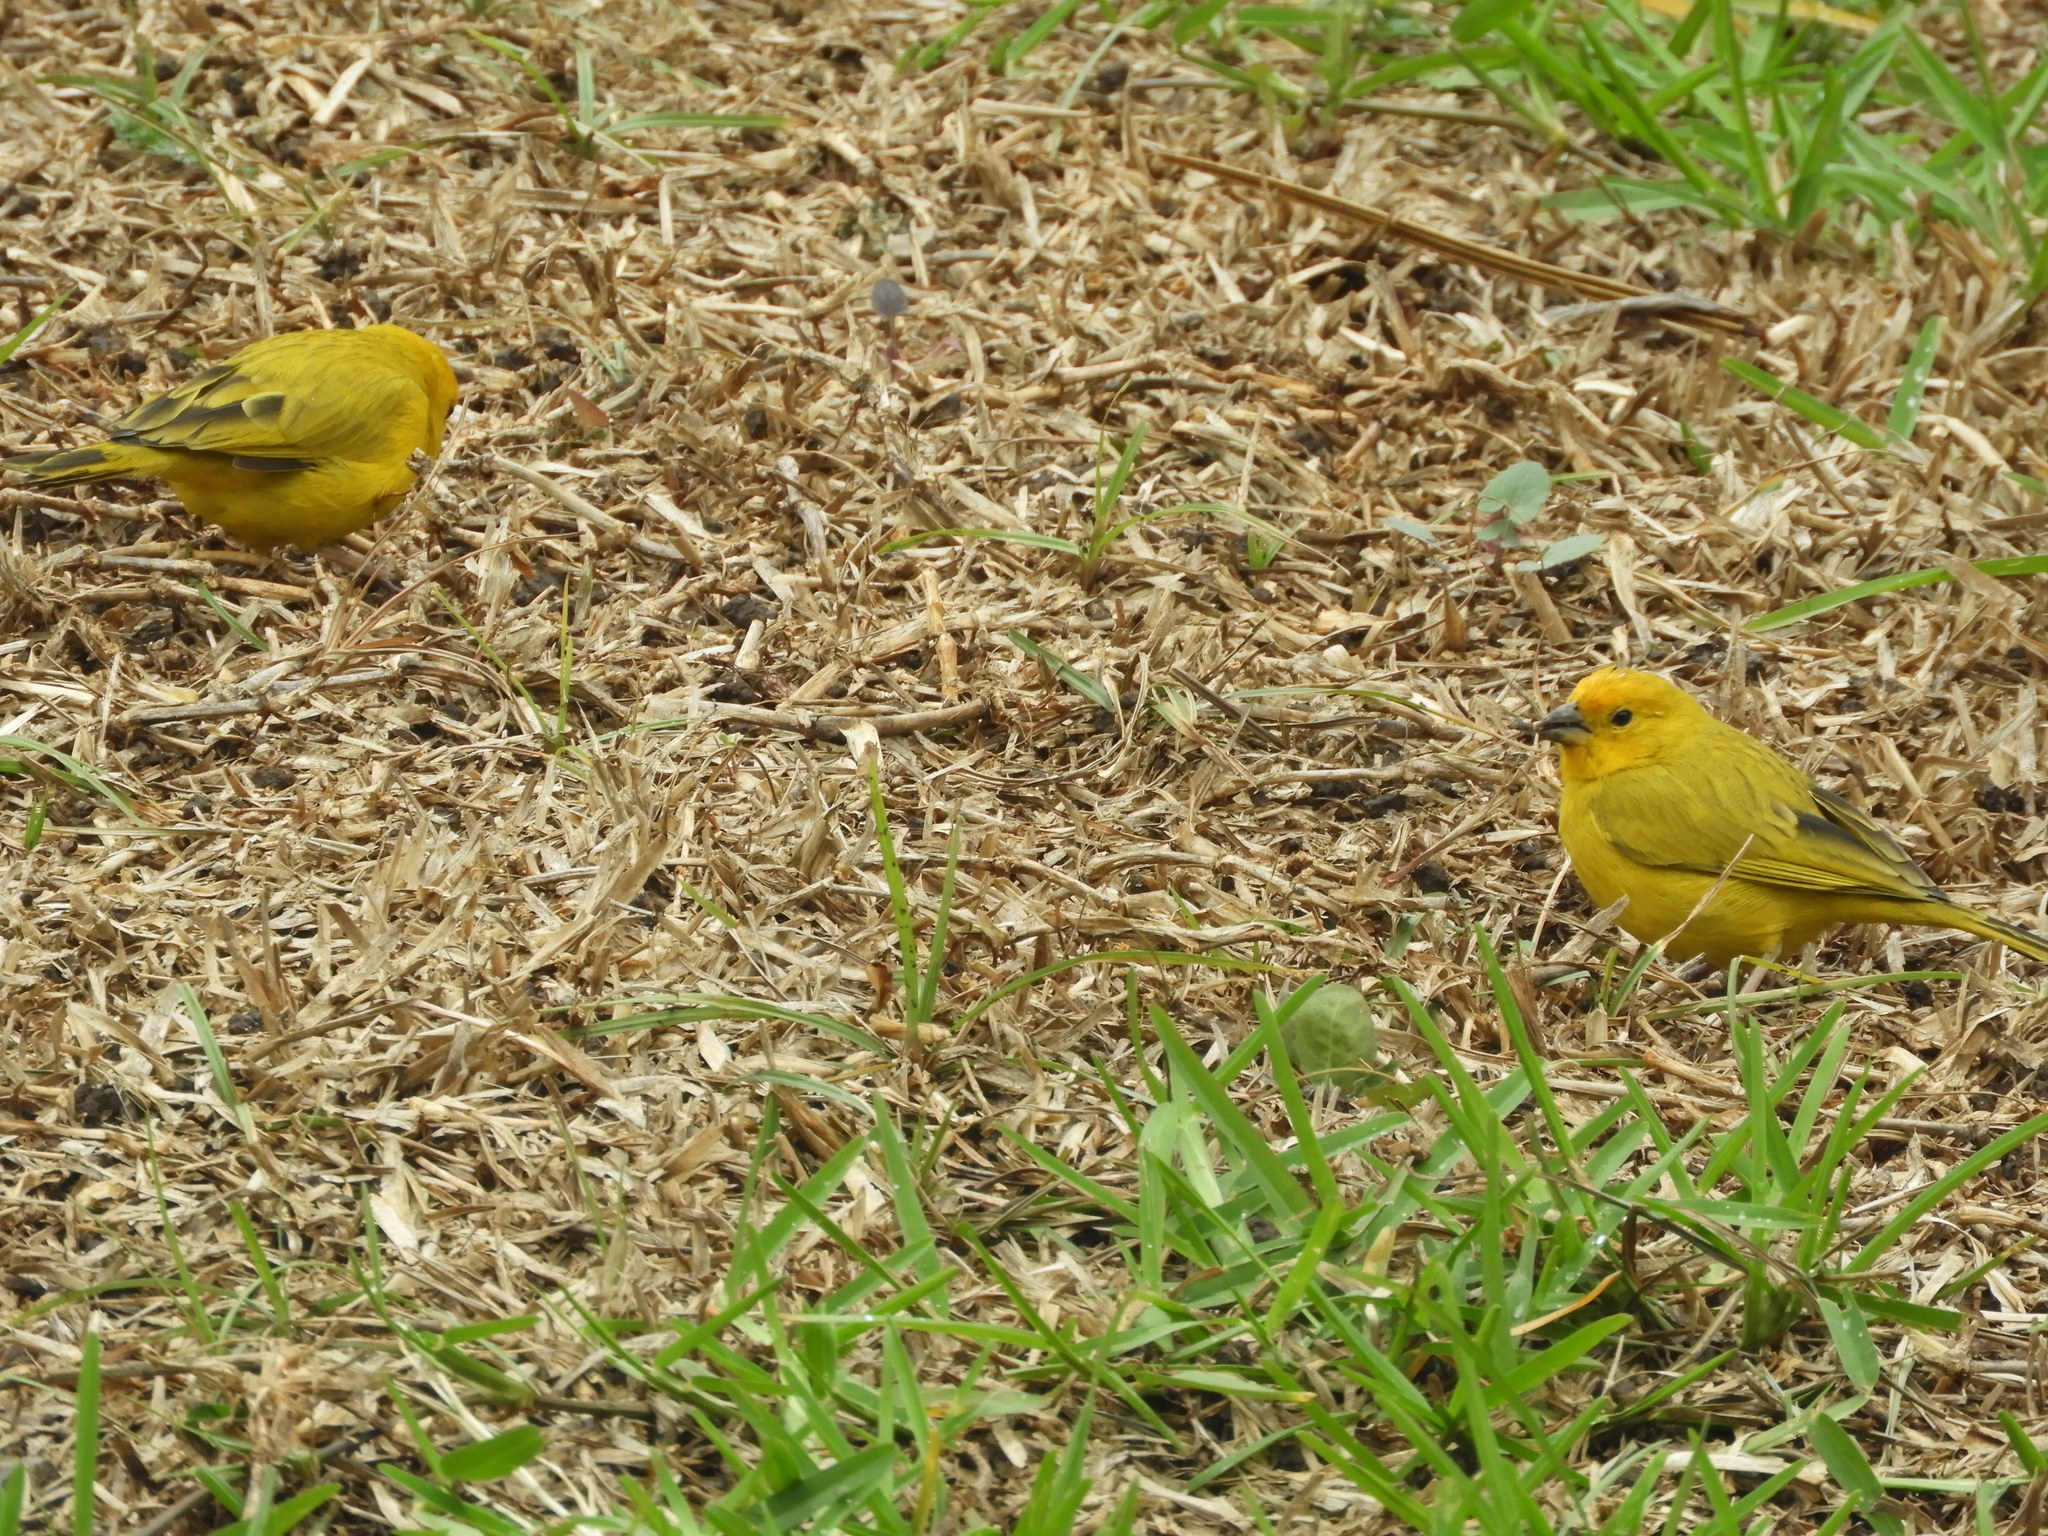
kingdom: Animalia
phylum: Chordata
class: Aves
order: Passeriformes
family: Thraupidae
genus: Sicalis
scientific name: Sicalis flaveola
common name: Saffron finch
